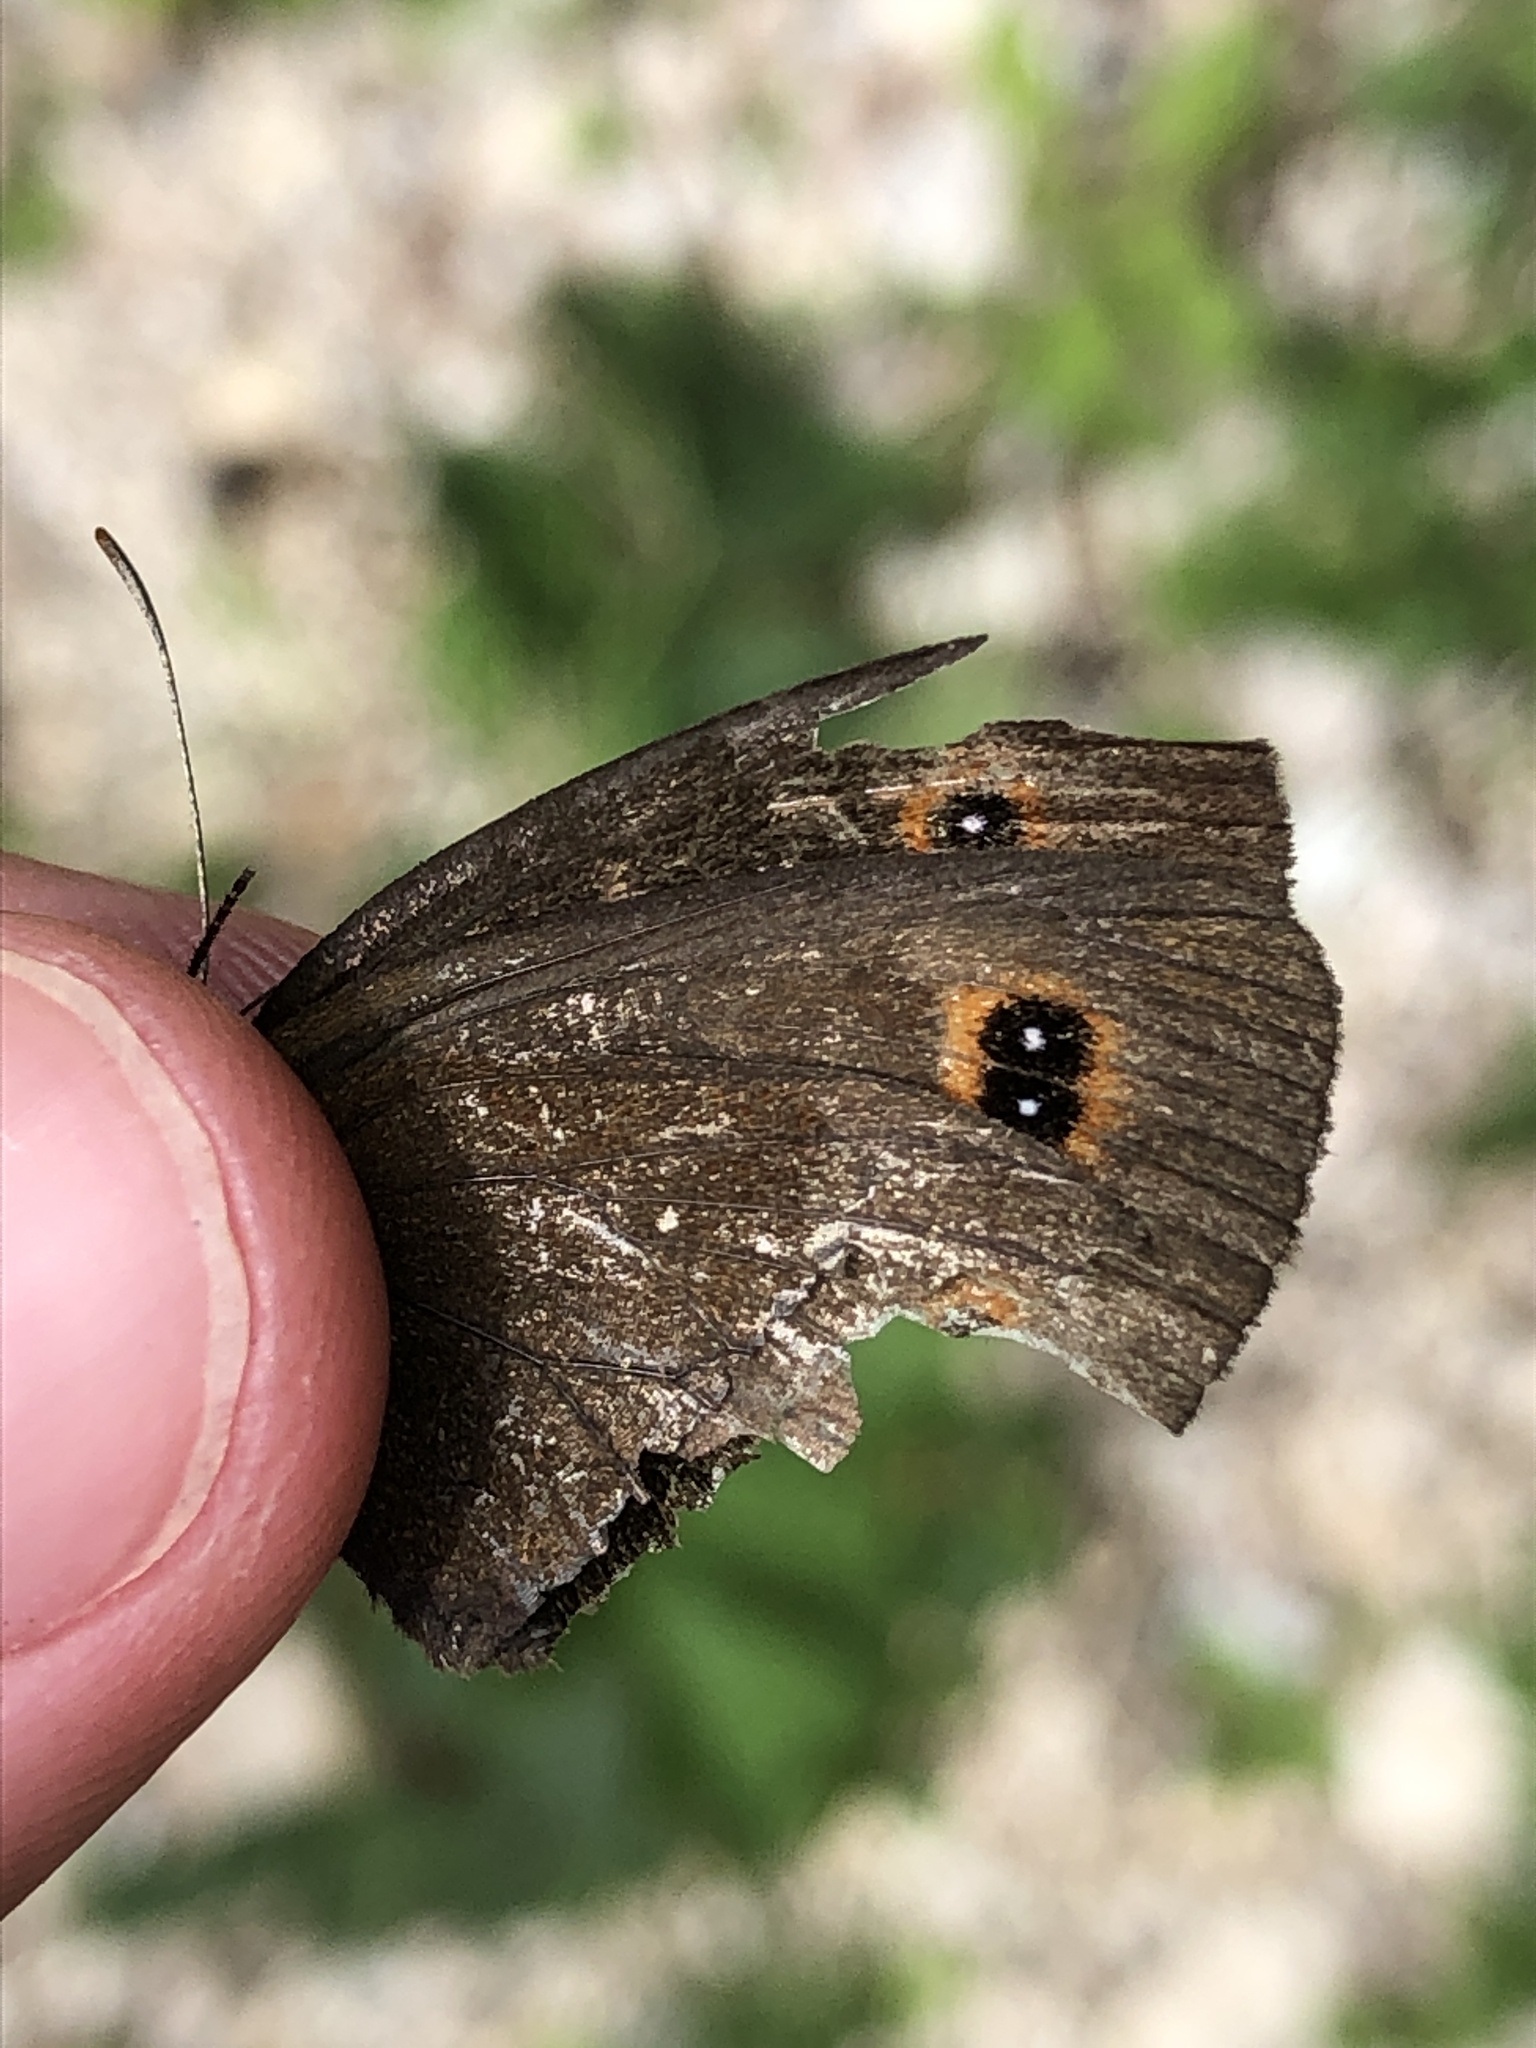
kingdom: Animalia
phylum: Arthropoda
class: Insecta
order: Lepidoptera
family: Nymphalidae
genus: Erebia
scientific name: Erebia aethiops
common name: Scotch argus
